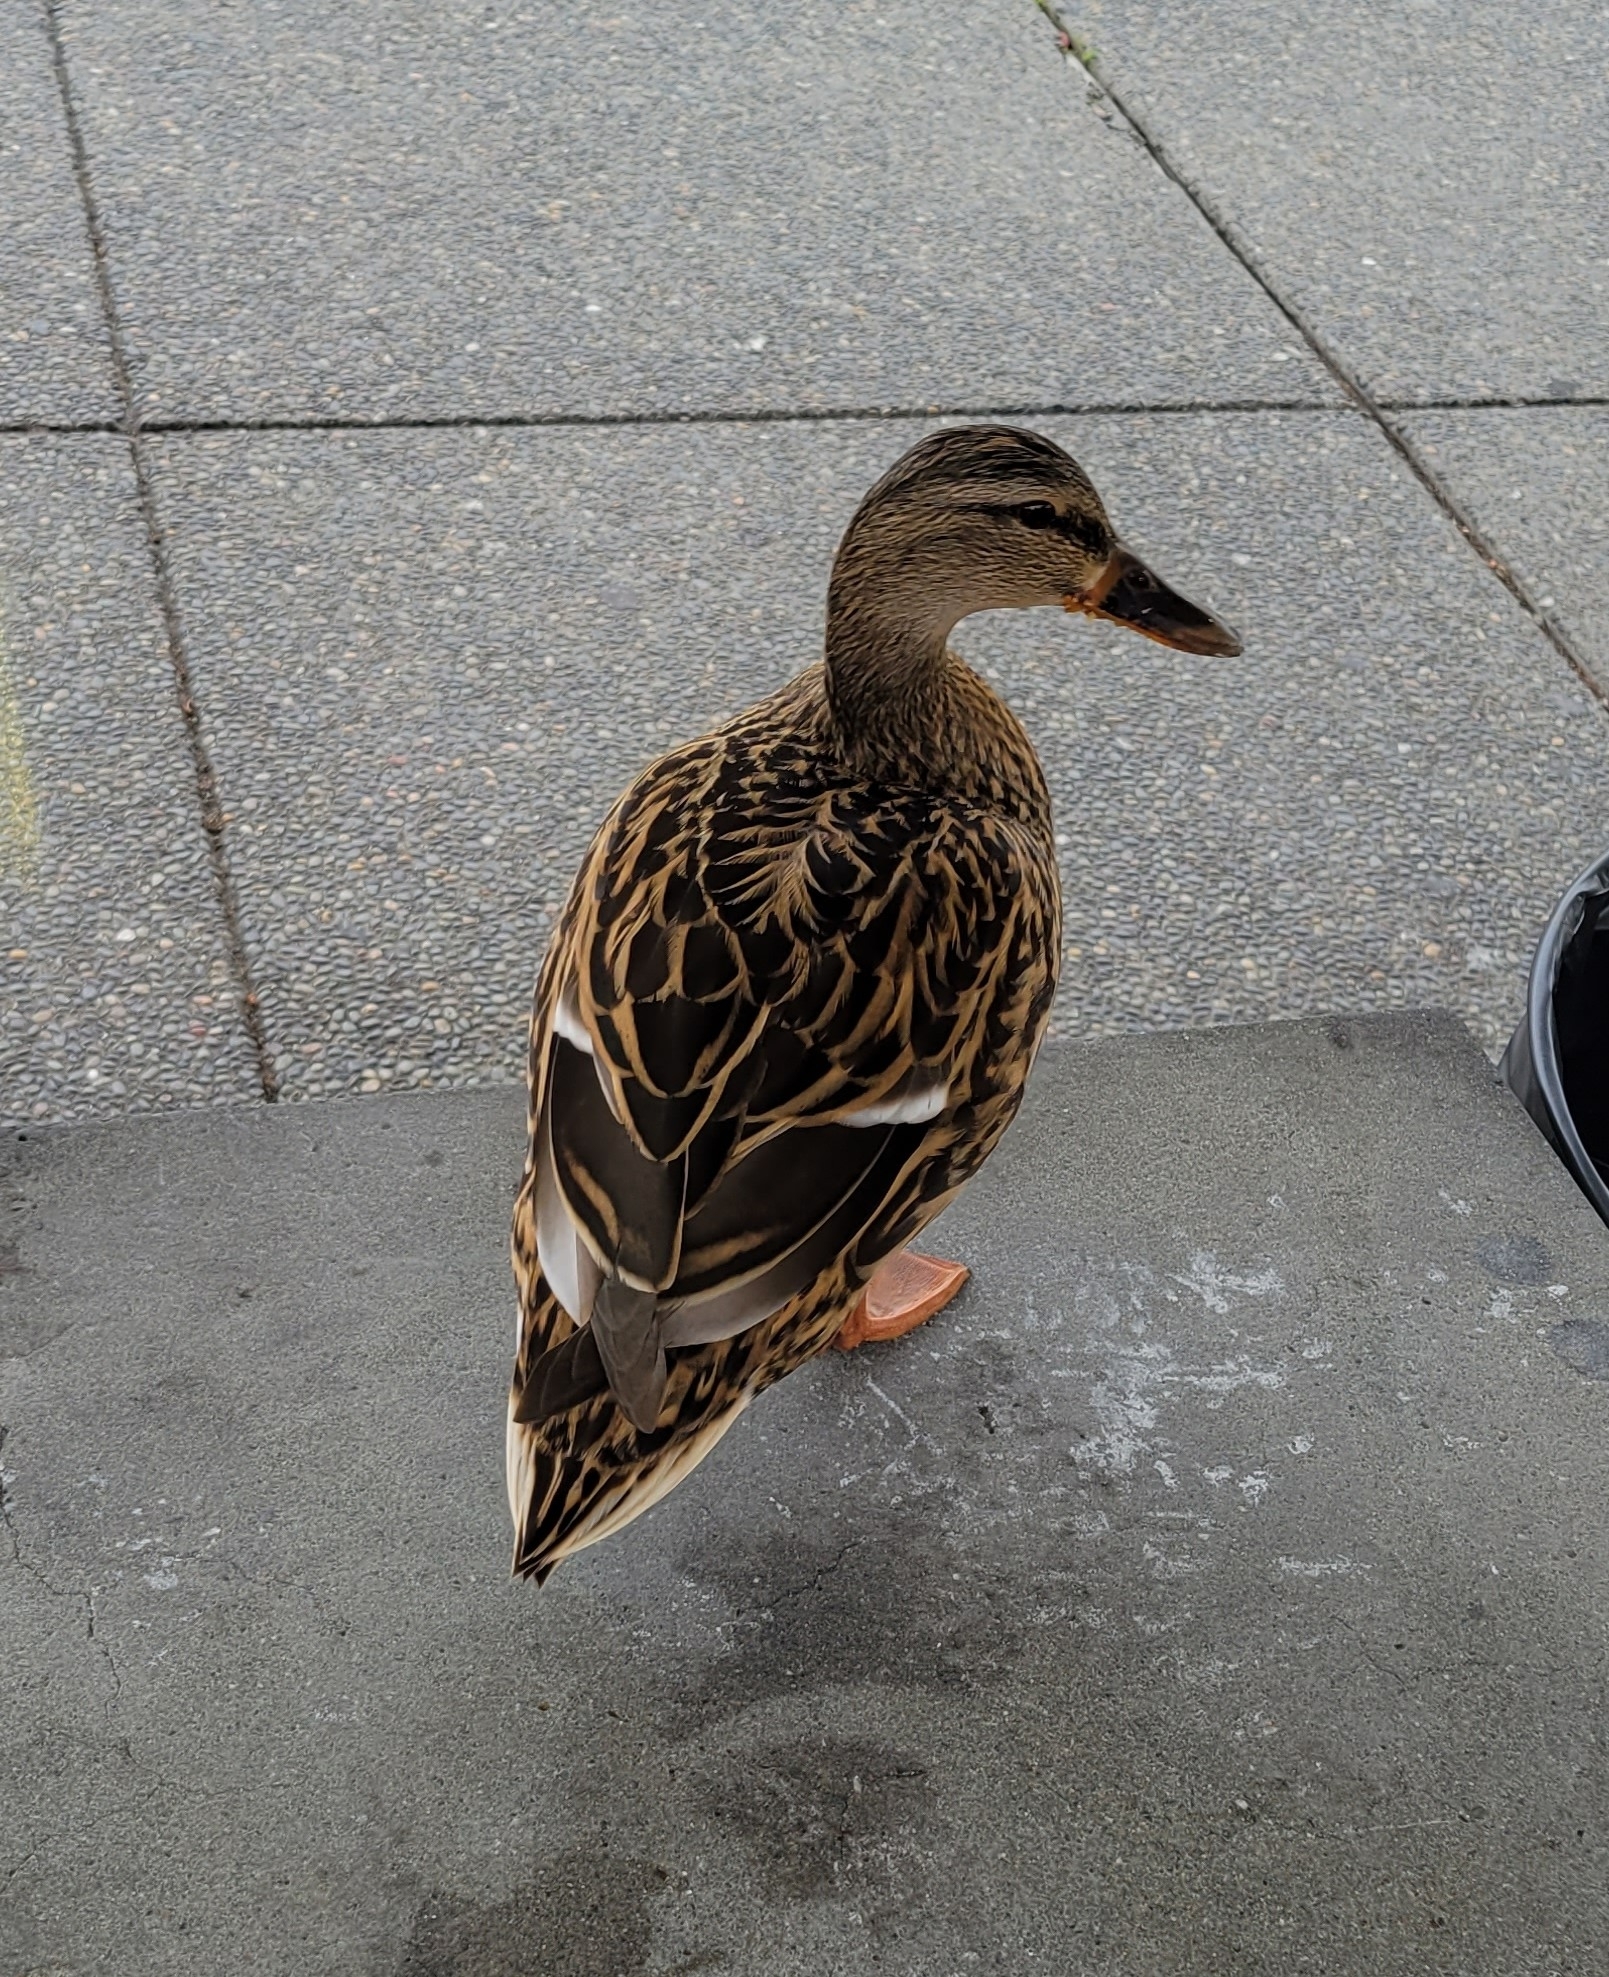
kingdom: Animalia
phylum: Chordata
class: Aves
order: Anseriformes
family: Anatidae
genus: Anas
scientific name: Anas platyrhynchos
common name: Mallard
